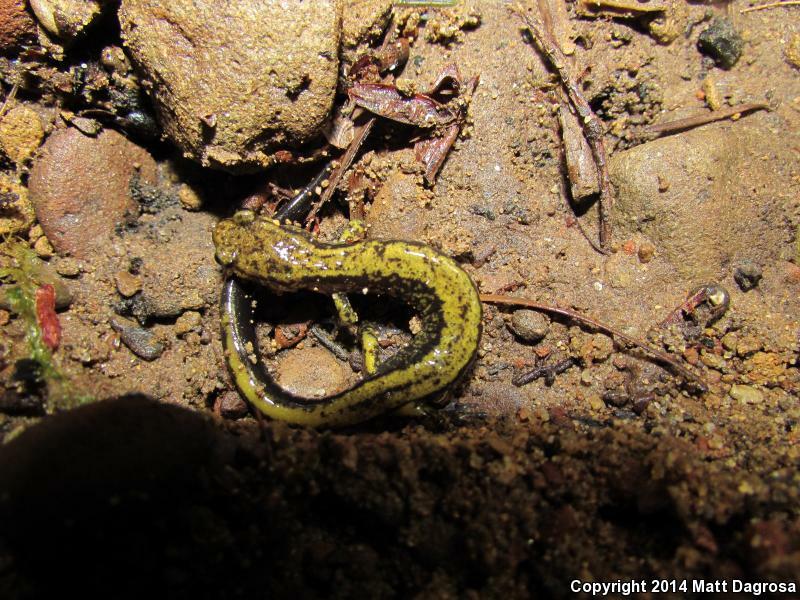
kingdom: Animalia
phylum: Chordata
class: Amphibia
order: Caudata
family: Plethodontidae
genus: Plethodon
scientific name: Plethodon dunni
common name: Dunn's salamander
